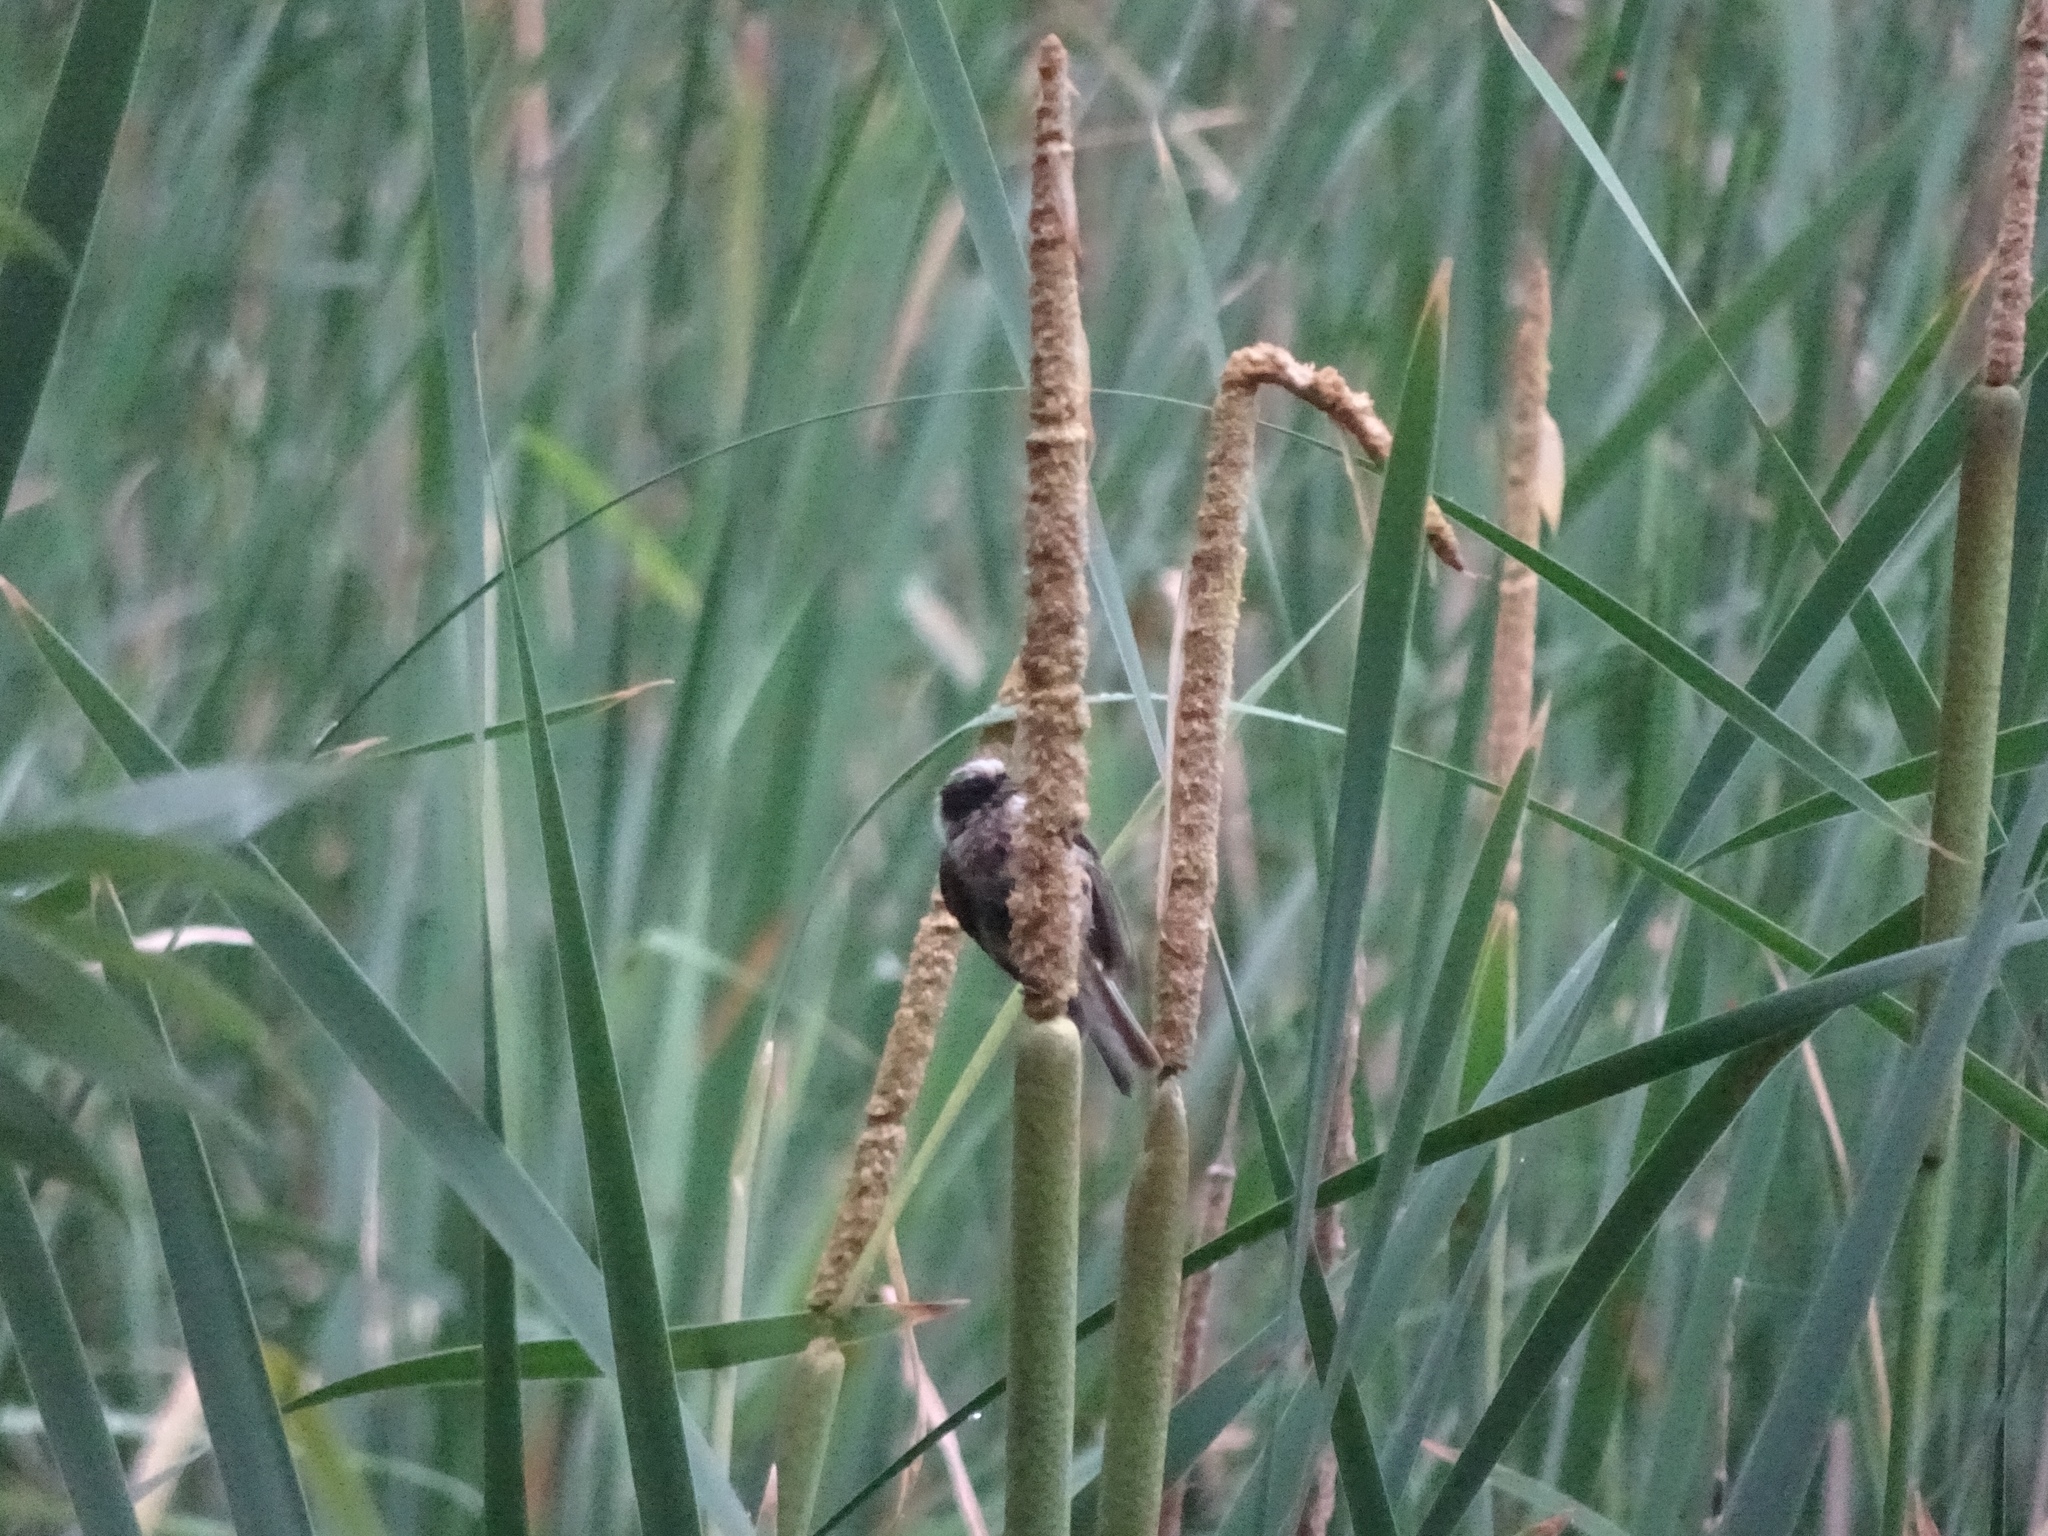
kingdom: Animalia
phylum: Chordata
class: Aves
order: Passeriformes
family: Remizidae
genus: Remiz
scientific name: Remiz pendulinus
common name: Eurasian penduline tit
